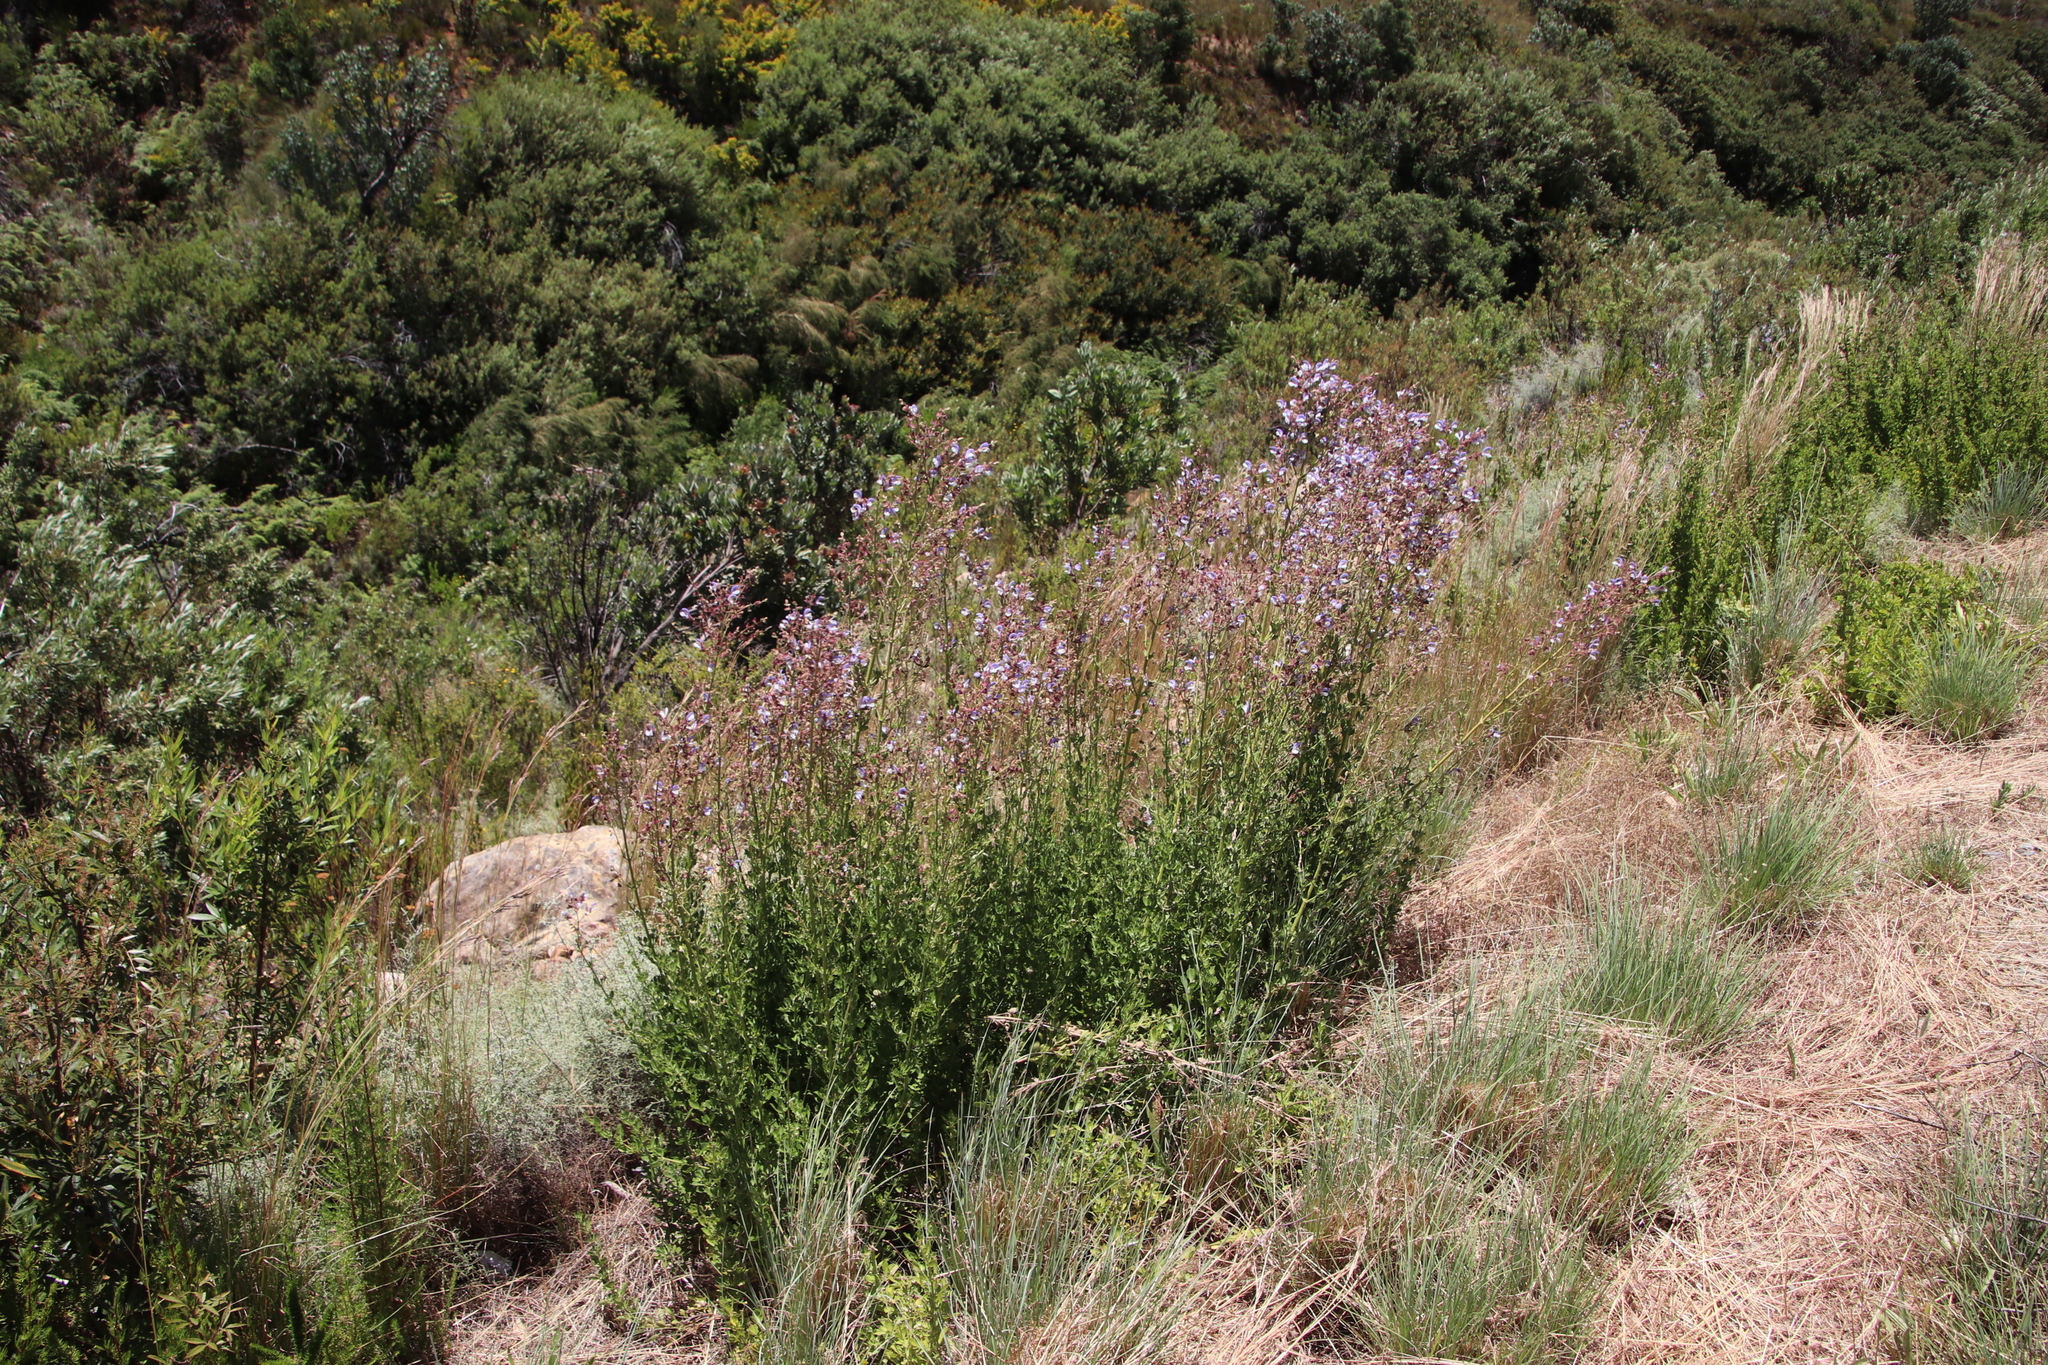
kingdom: Plantae
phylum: Tracheophyta
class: Magnoliopsida
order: Lamiales
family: Lamiaceae
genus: Salvia
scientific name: Salvia chamelaeagnea
